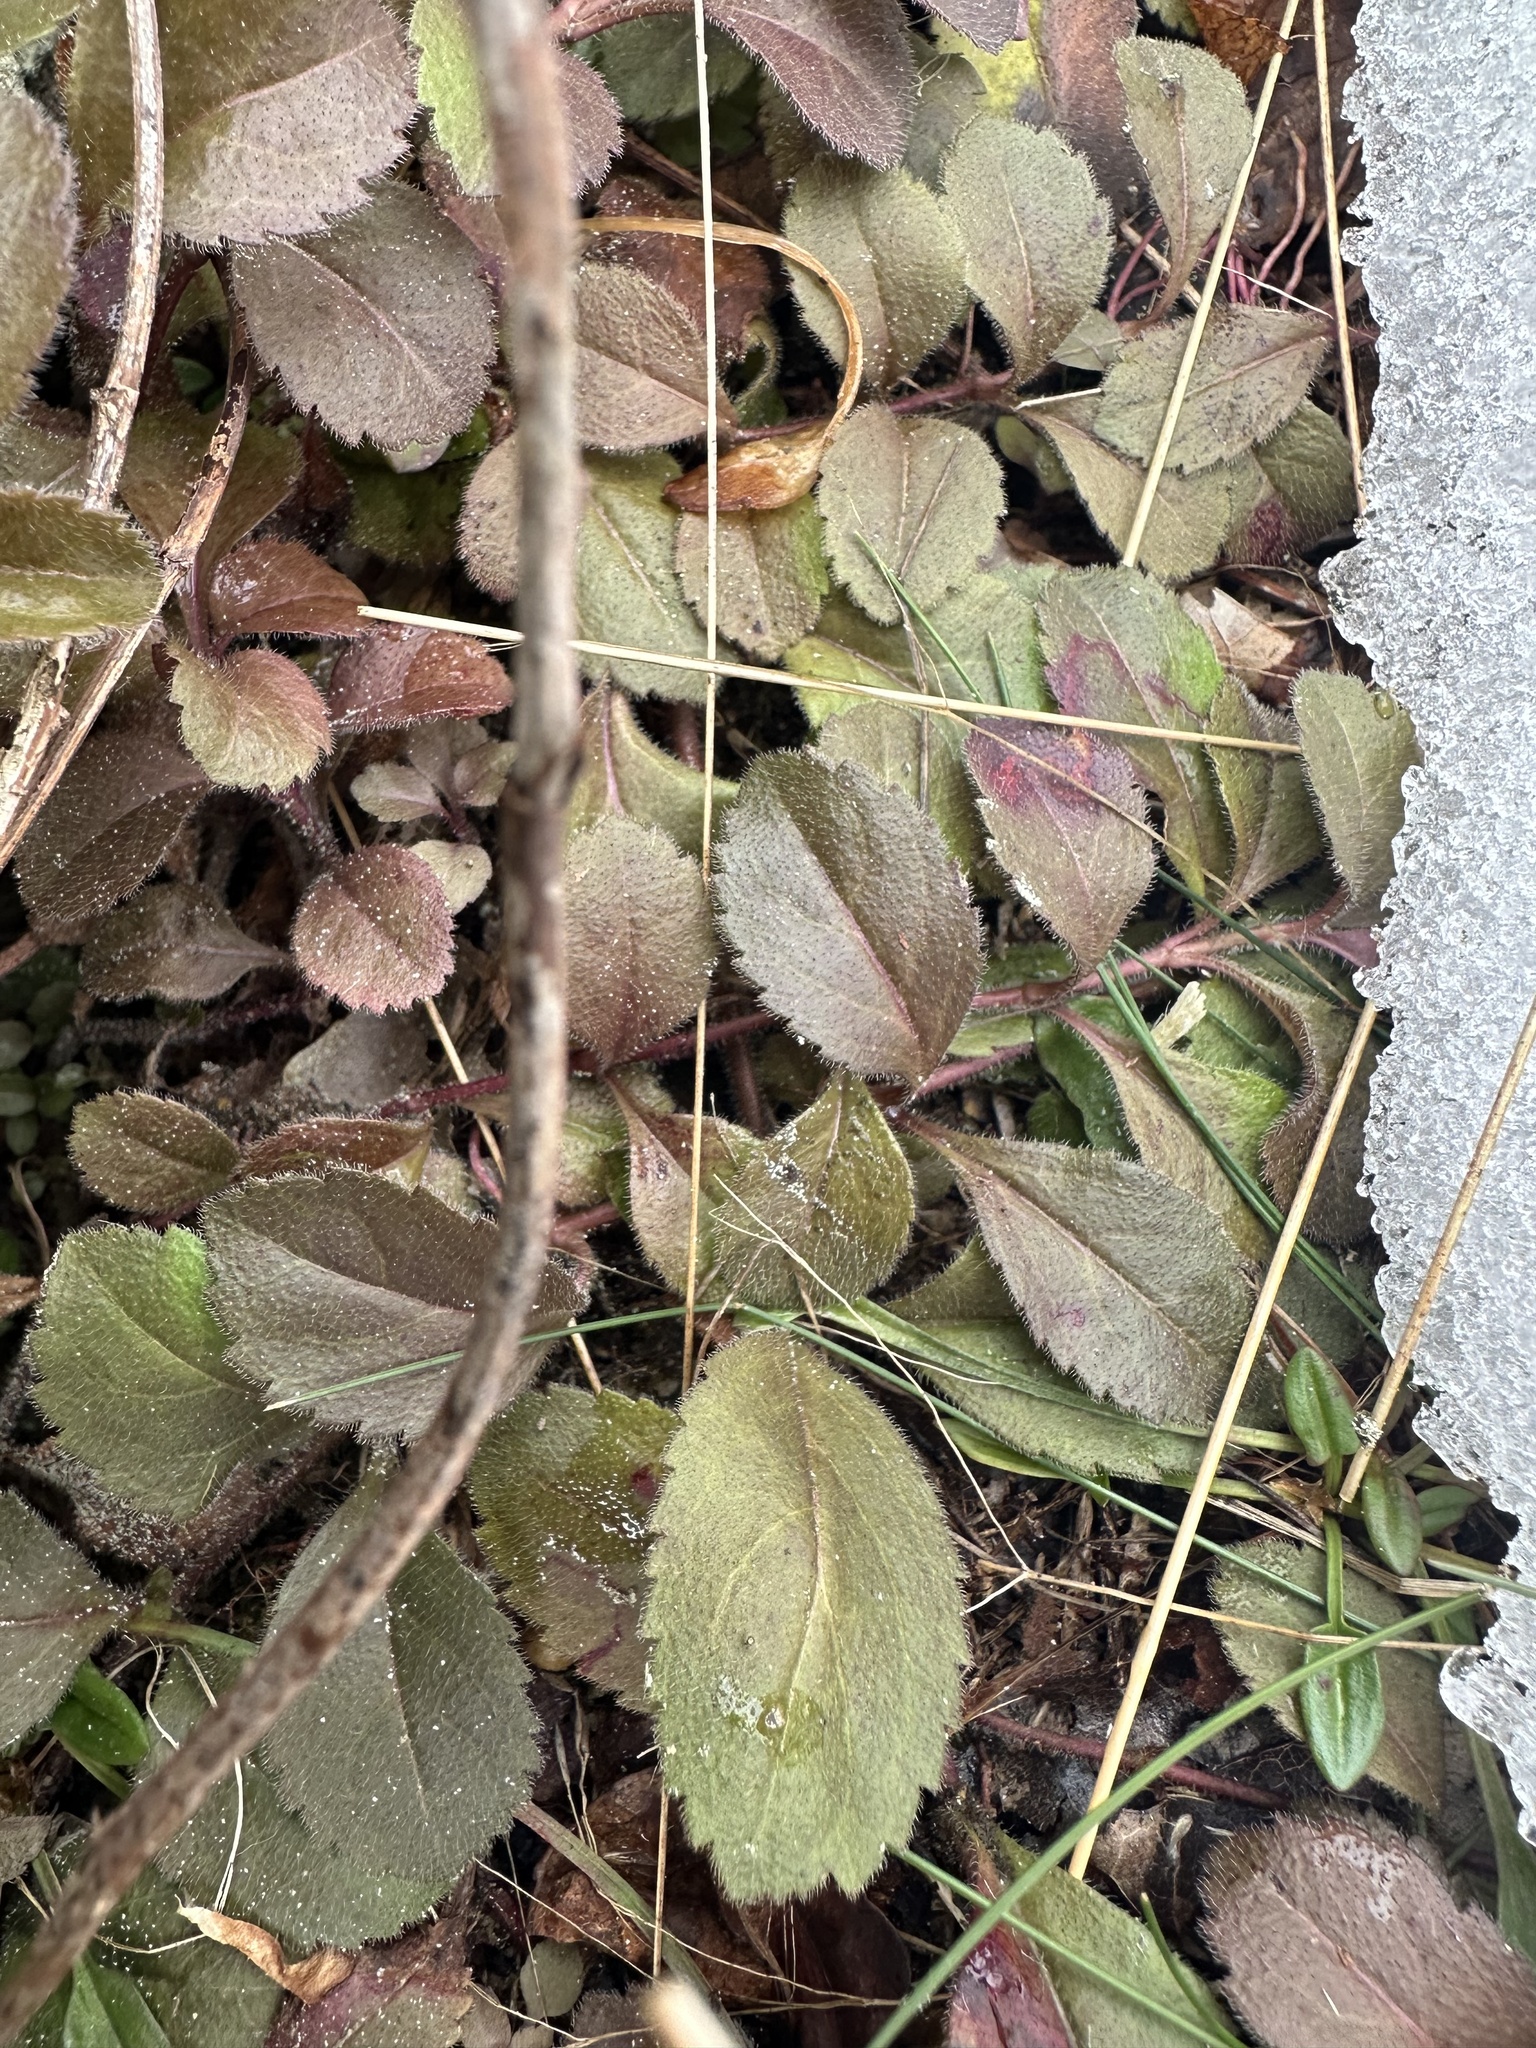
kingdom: Plantae
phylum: Tracheophyta
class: Magnoliopsida
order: Lamiales
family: Plantaginaceae
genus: Veronica
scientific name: Veronica officinalis
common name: Common speedwell
